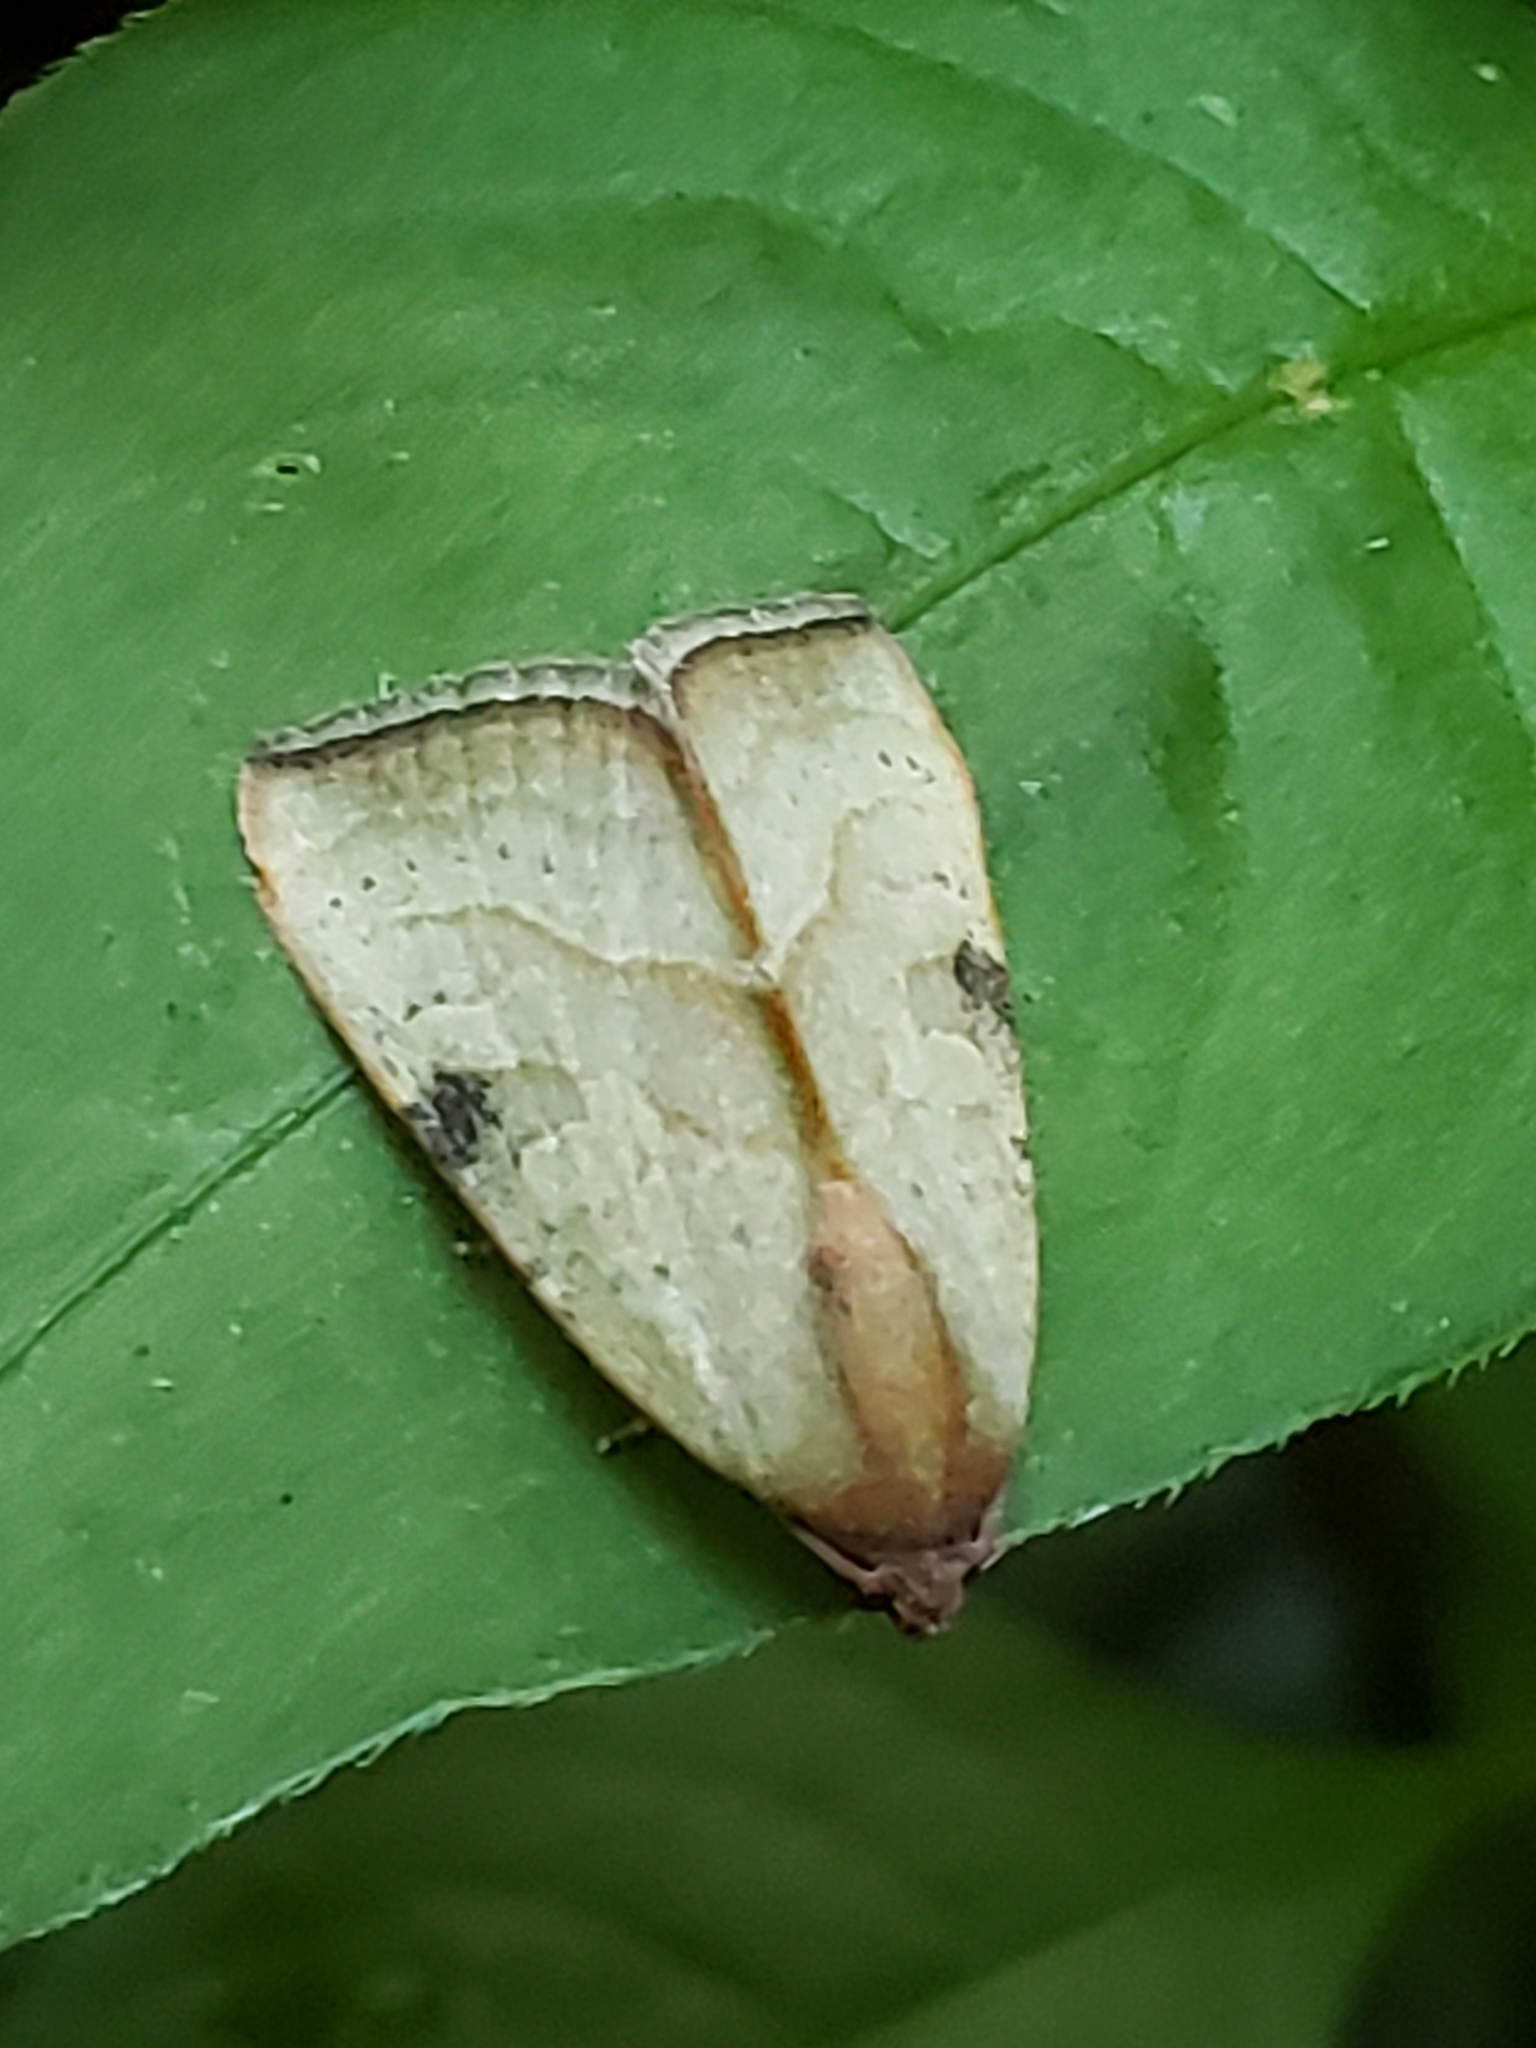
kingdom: Animalia
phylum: Arthropoda
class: Insecta
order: Lepidoptera
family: Noctuidae
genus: Galgula
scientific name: Galgula partita
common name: Wedgeling
